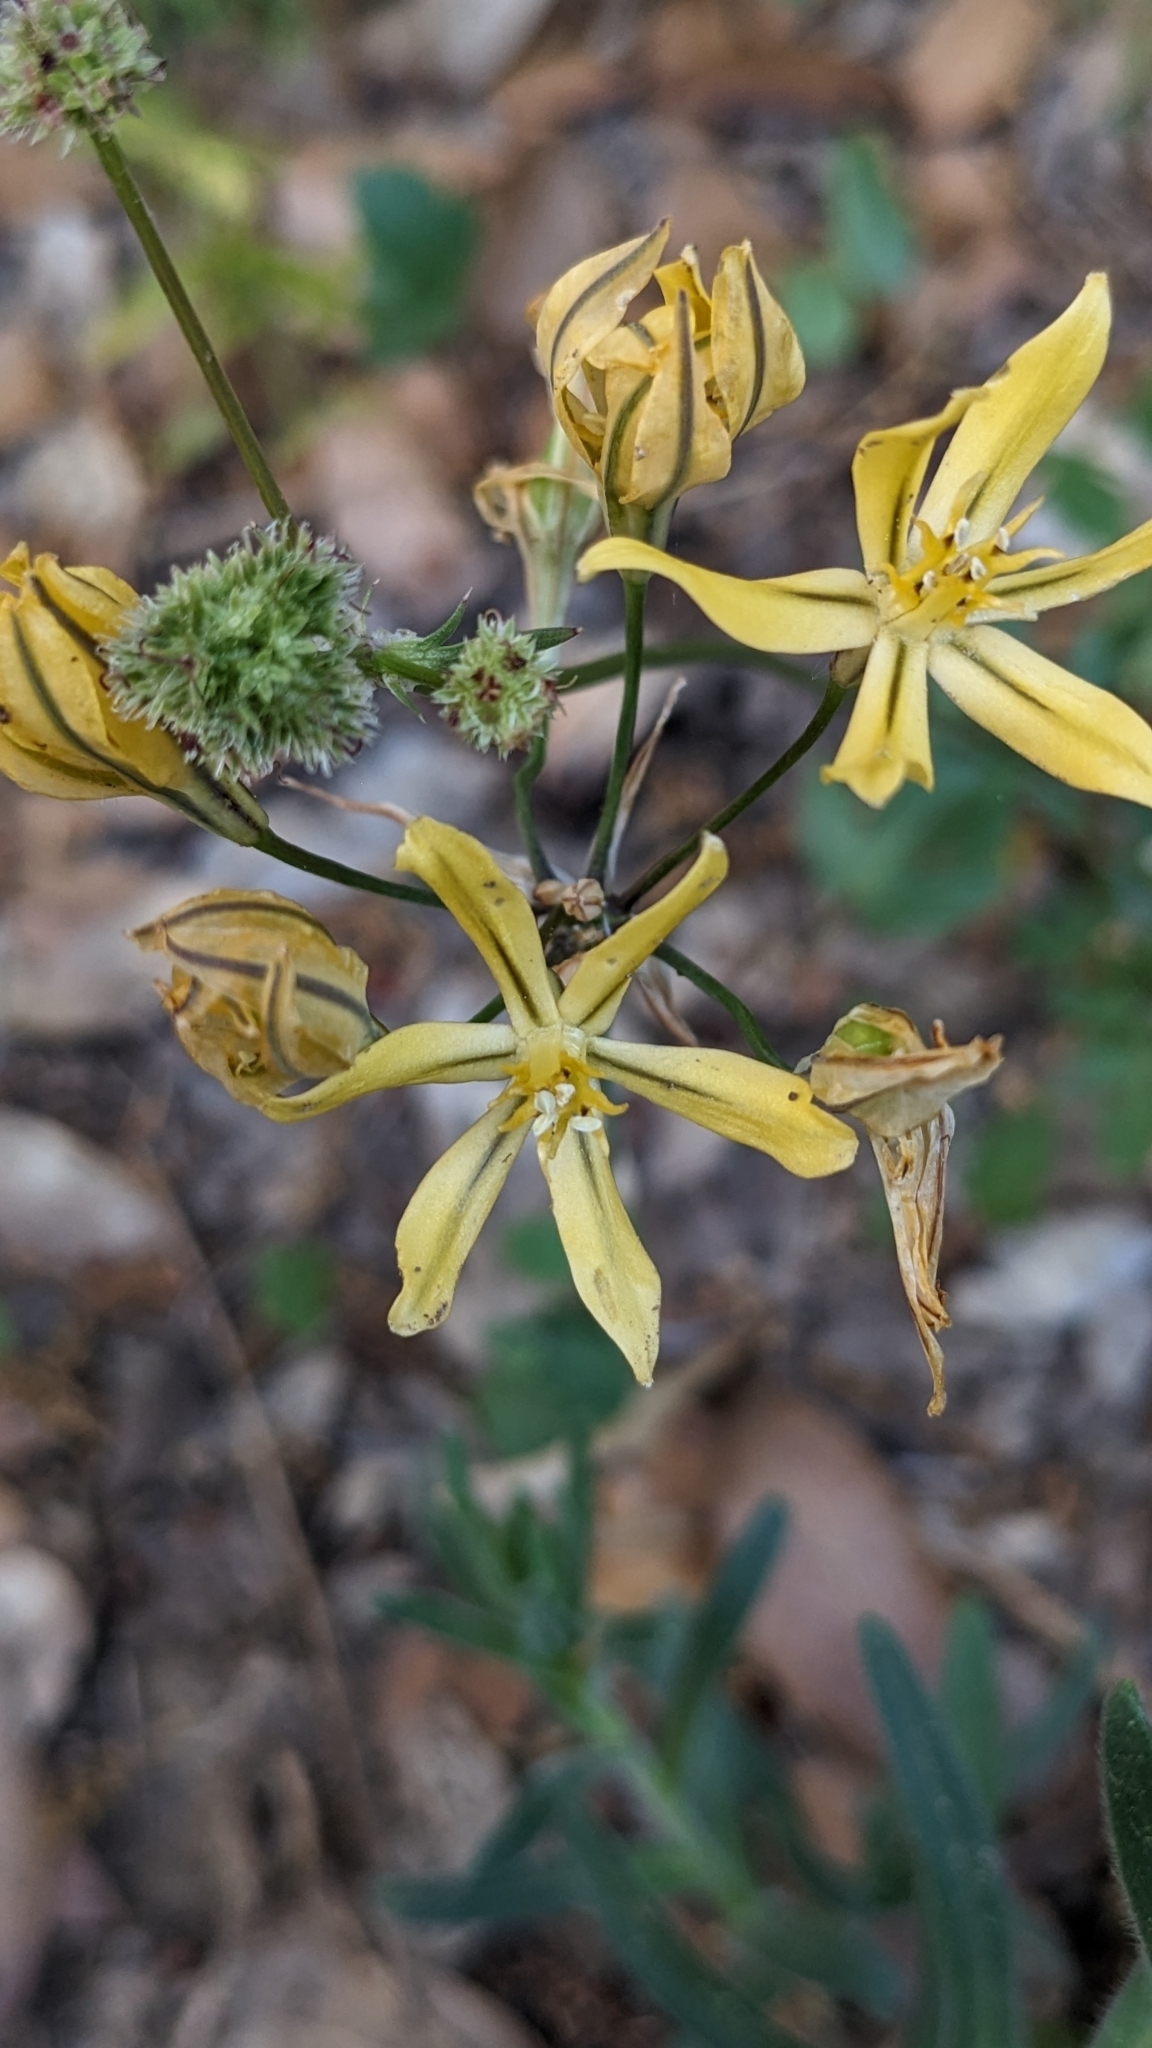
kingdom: Plantae
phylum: Tracheophyta
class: Liliopsida
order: Asparagales
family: Asparagaceae
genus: Triteleia
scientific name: Triteleia ixioides
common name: Yellow-brodiaea
